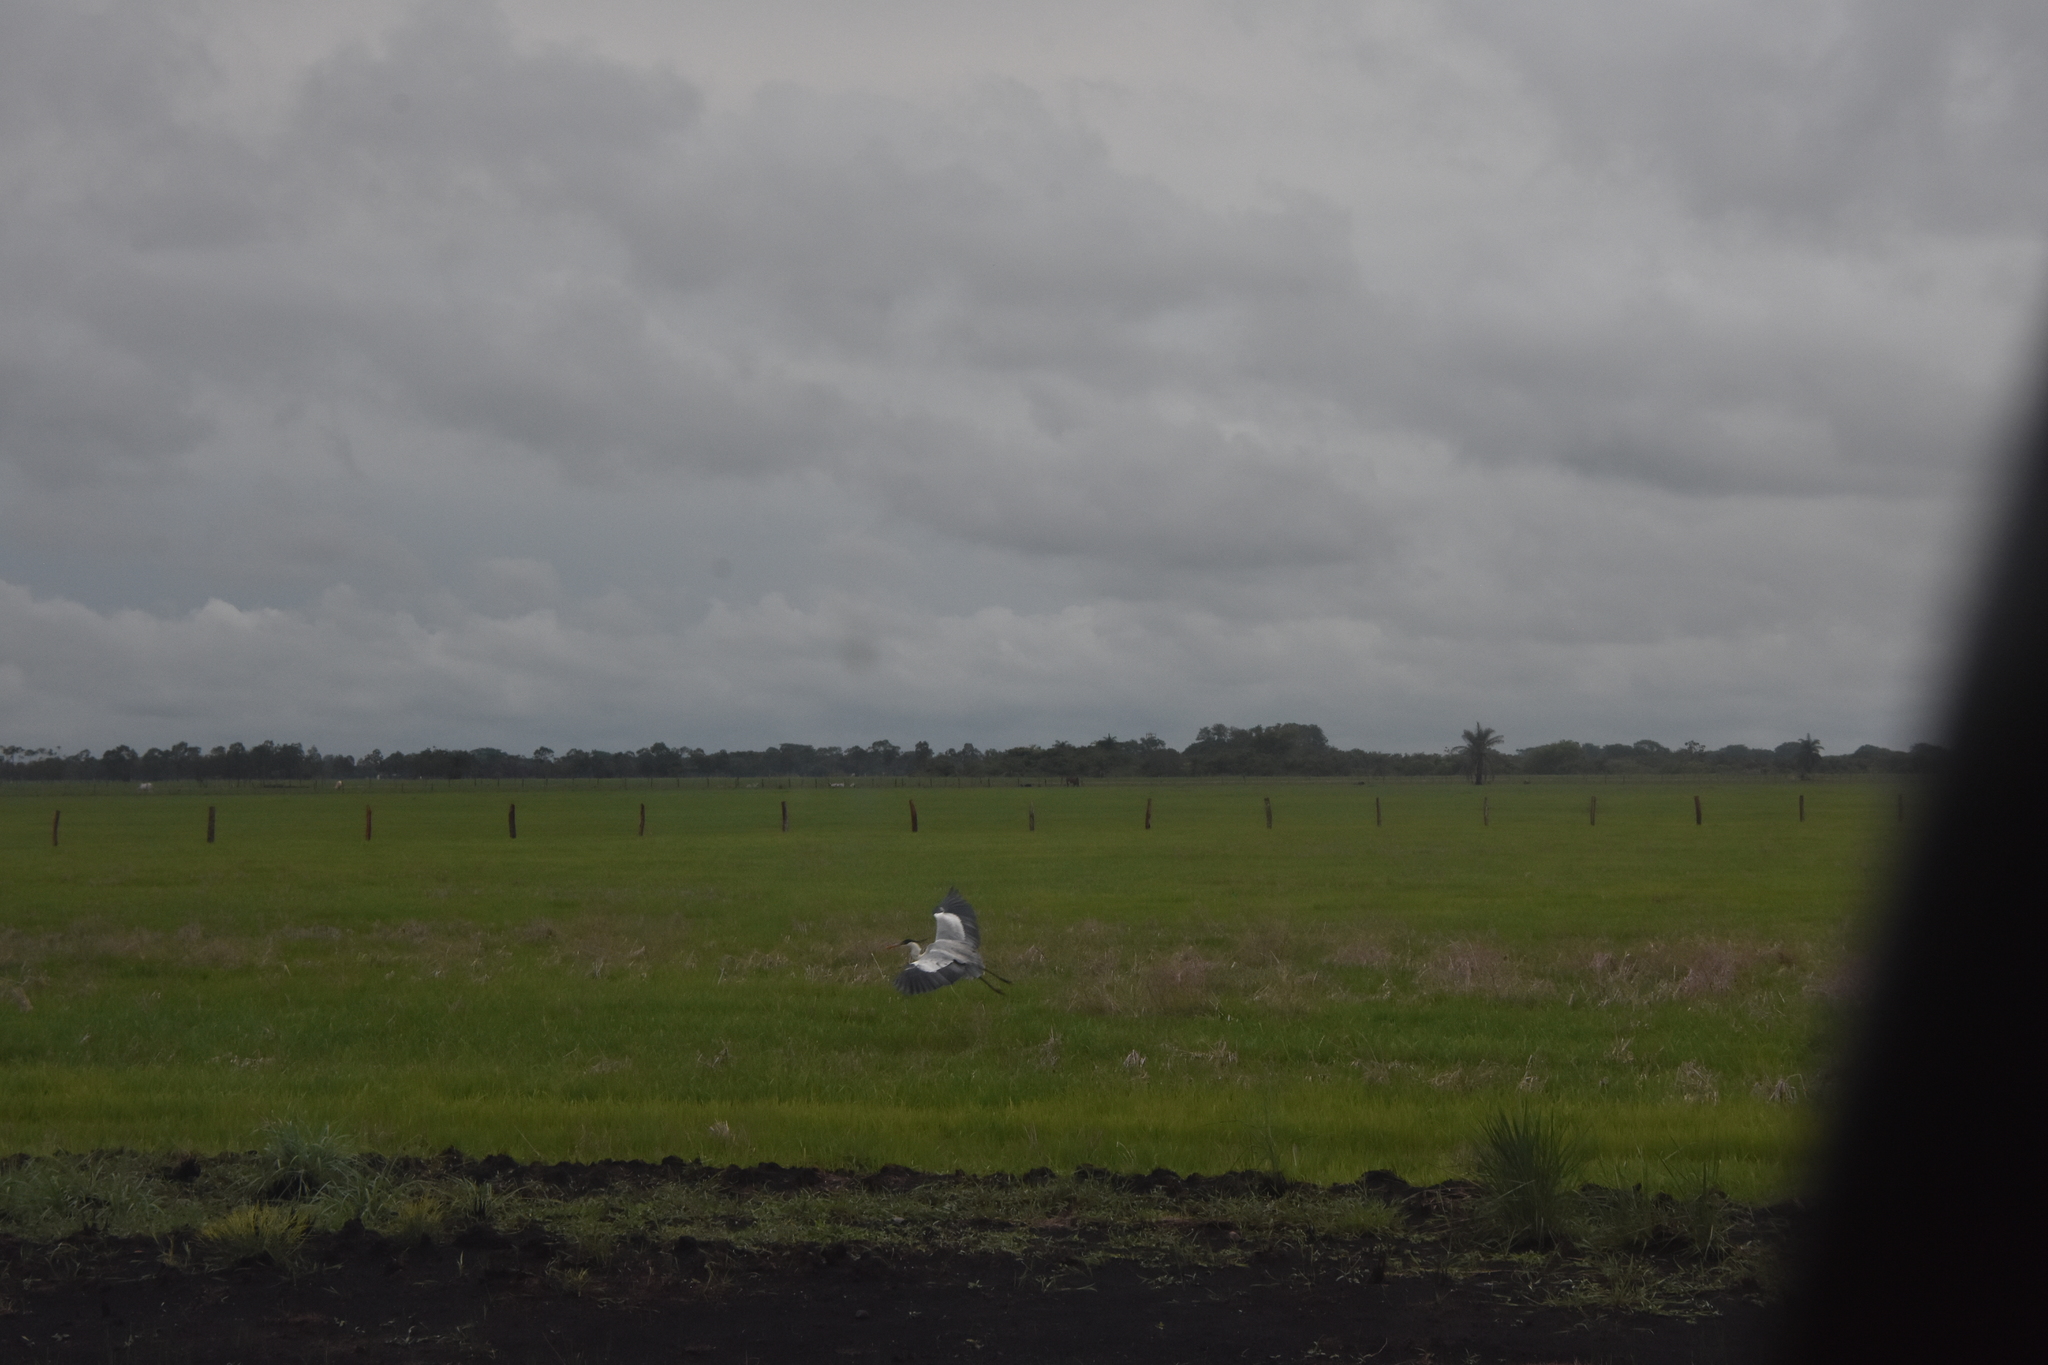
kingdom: Animalia
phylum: Chordata
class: Aves
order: Pelecaniformes
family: Ardeidae
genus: Ardea
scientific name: Ardea cocoi
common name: Cocoi heron
